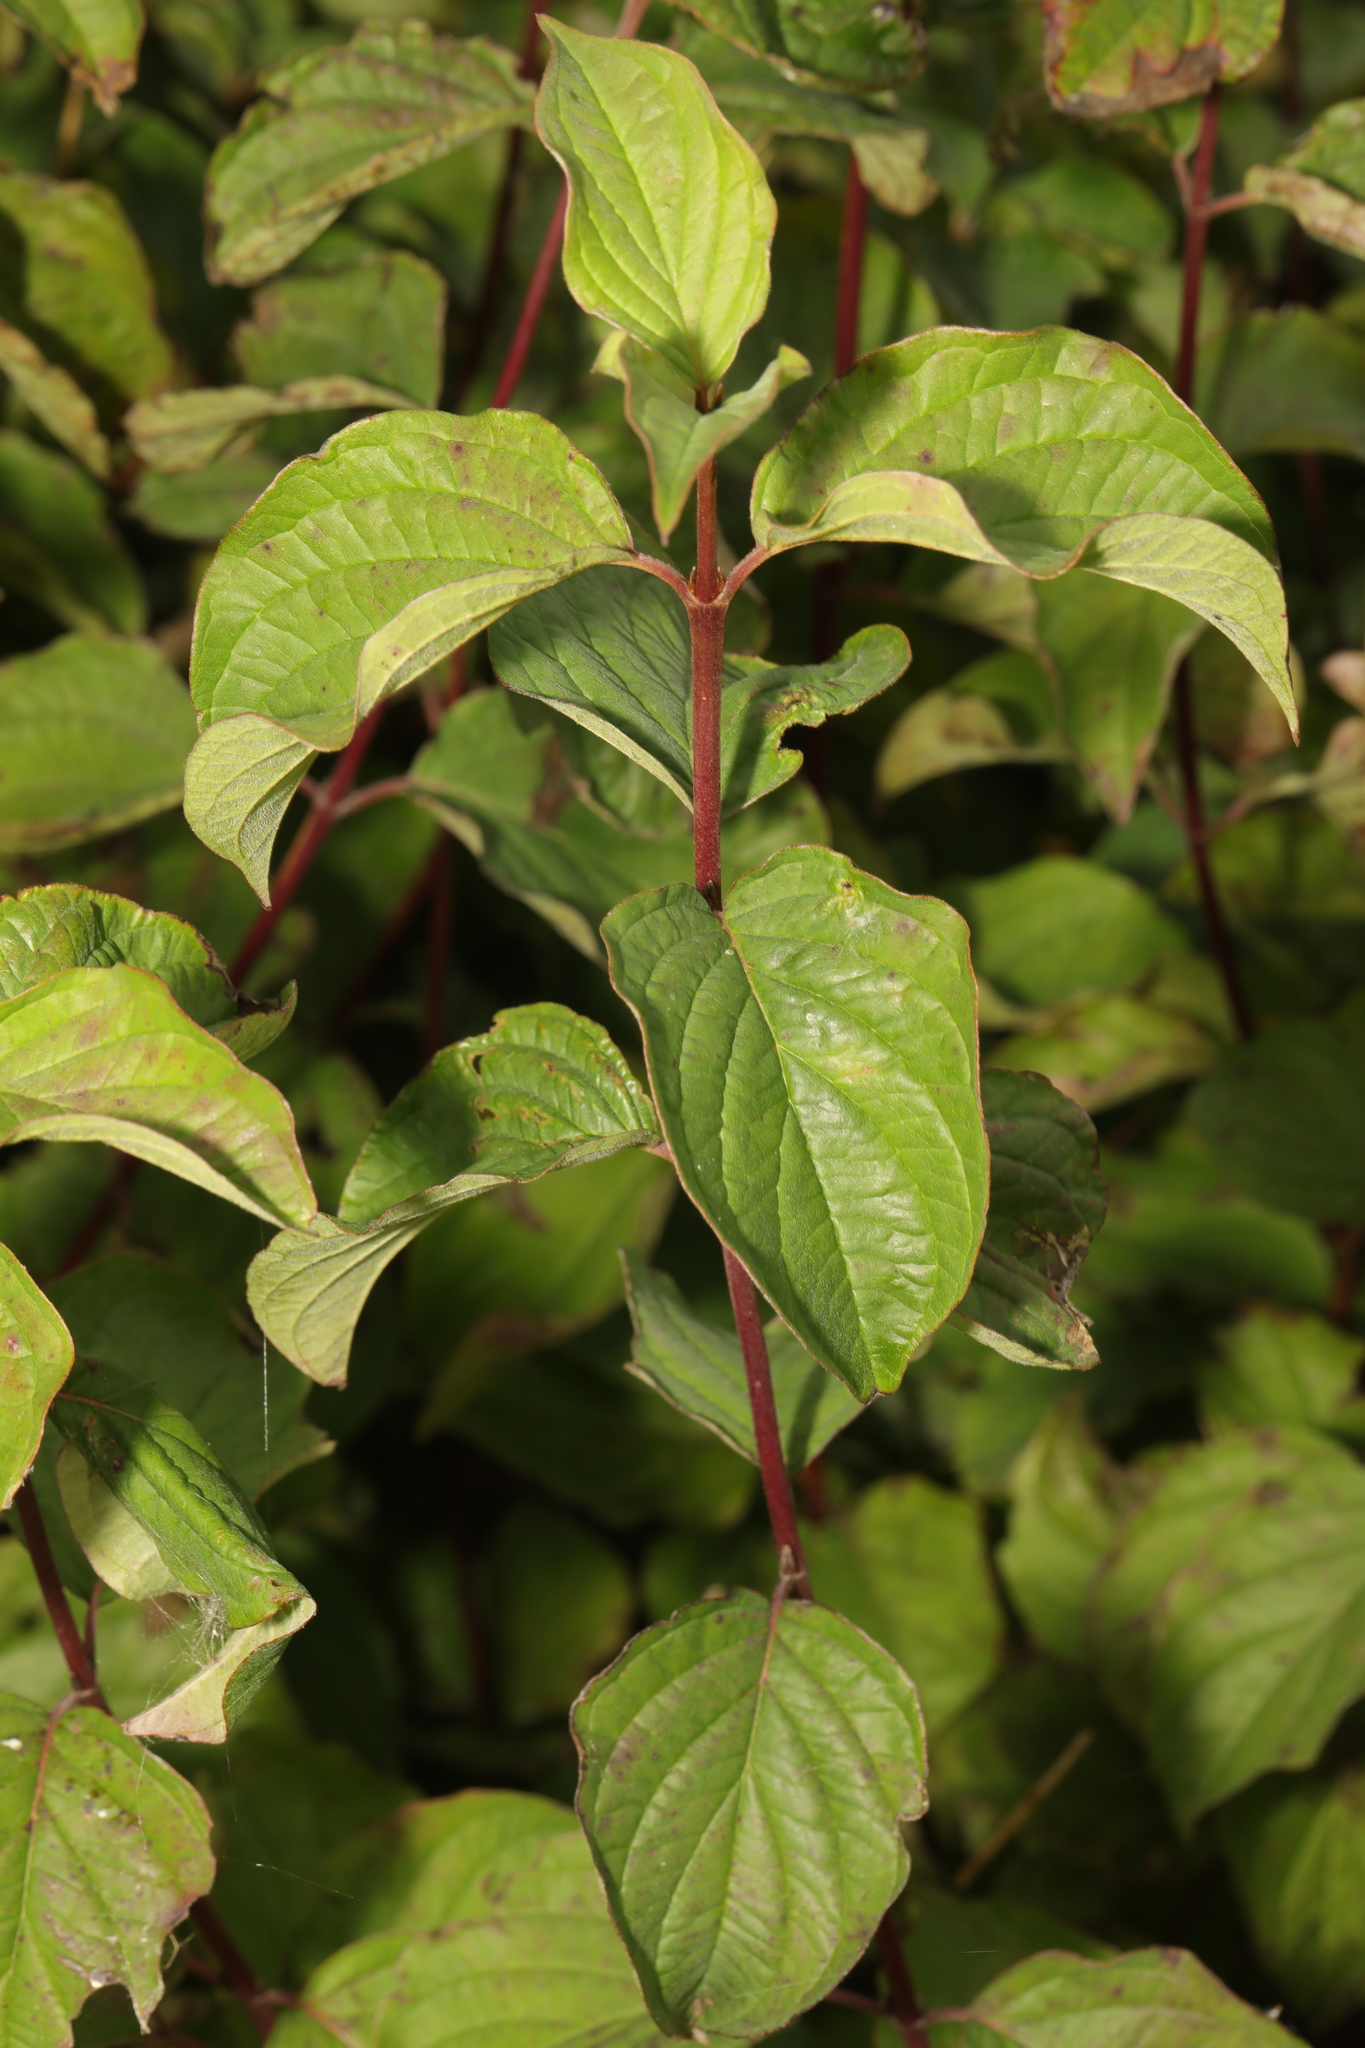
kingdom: Plantae
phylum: Tracheophyta
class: Magnoliopsida
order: Cornales
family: Cornaceae
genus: Cornus
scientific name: Cornus sanguinea
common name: Dogwood
